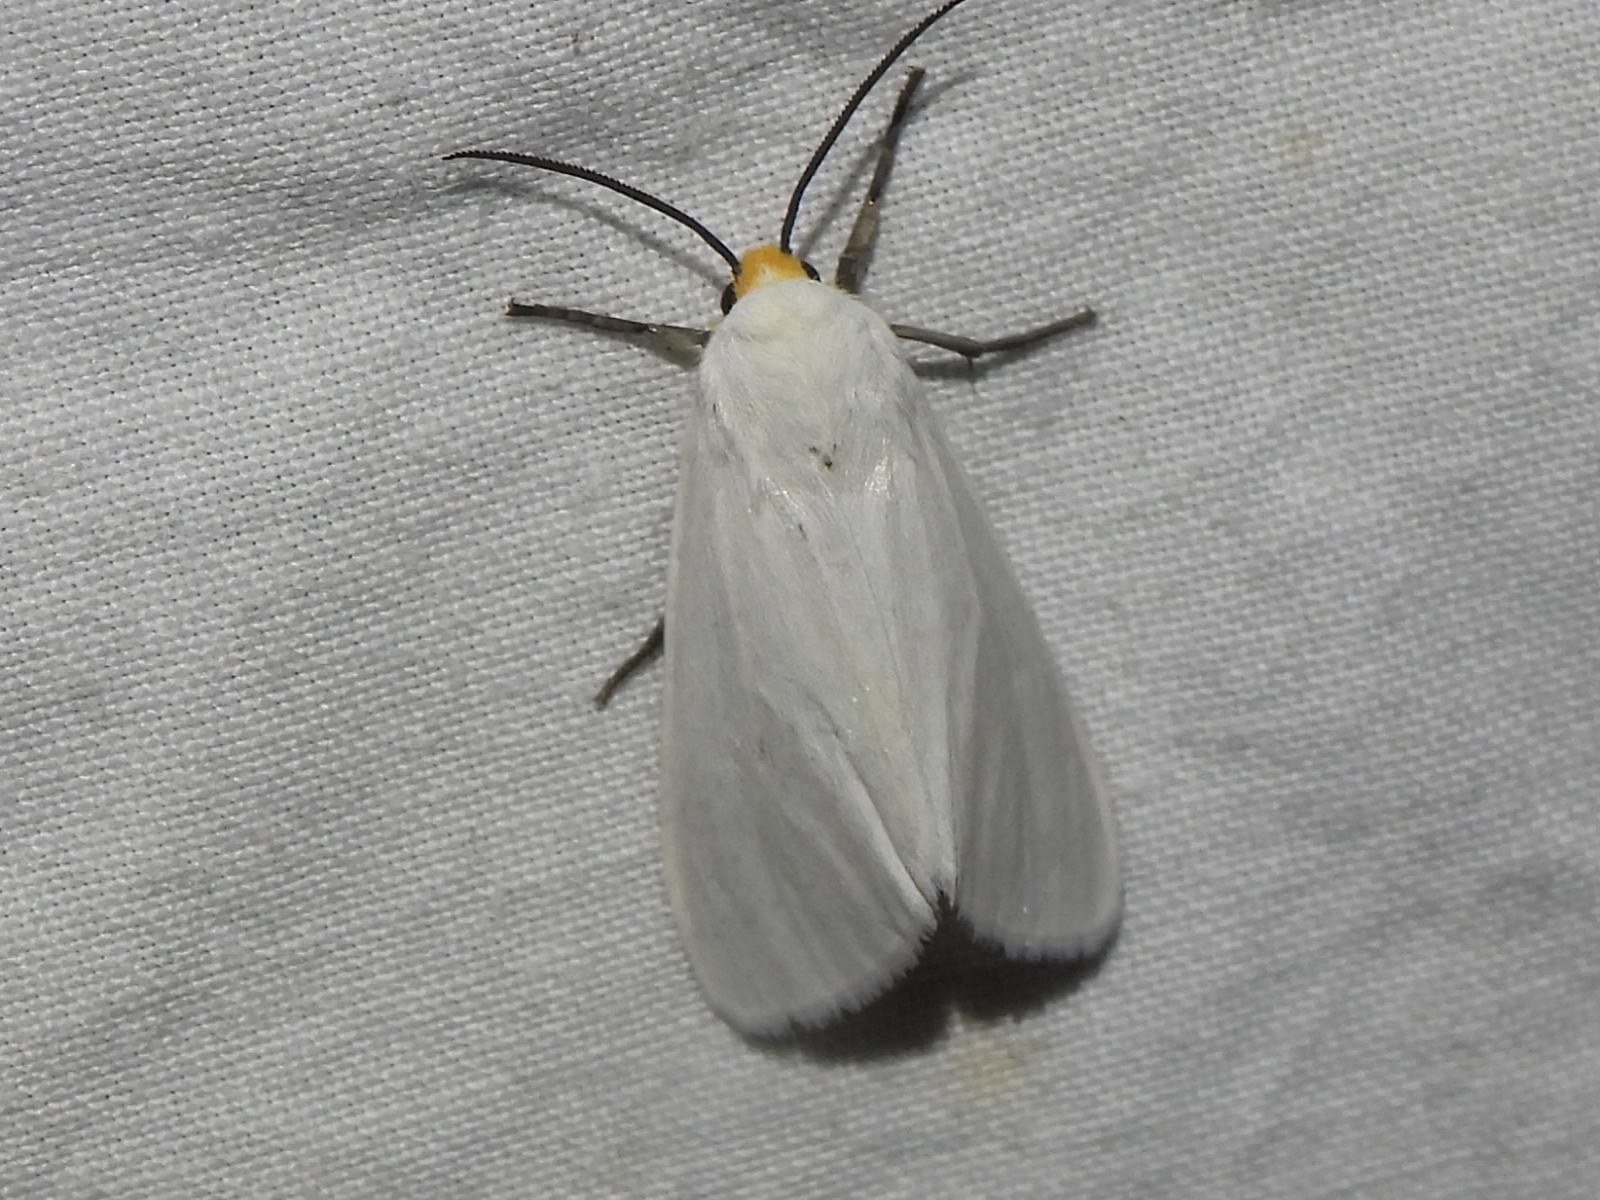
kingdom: Animalia
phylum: Arthropoda
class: Insecta
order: Lepidoptera
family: Erebidae
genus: Pygarctia
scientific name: Pygarctia flavidorsalis
